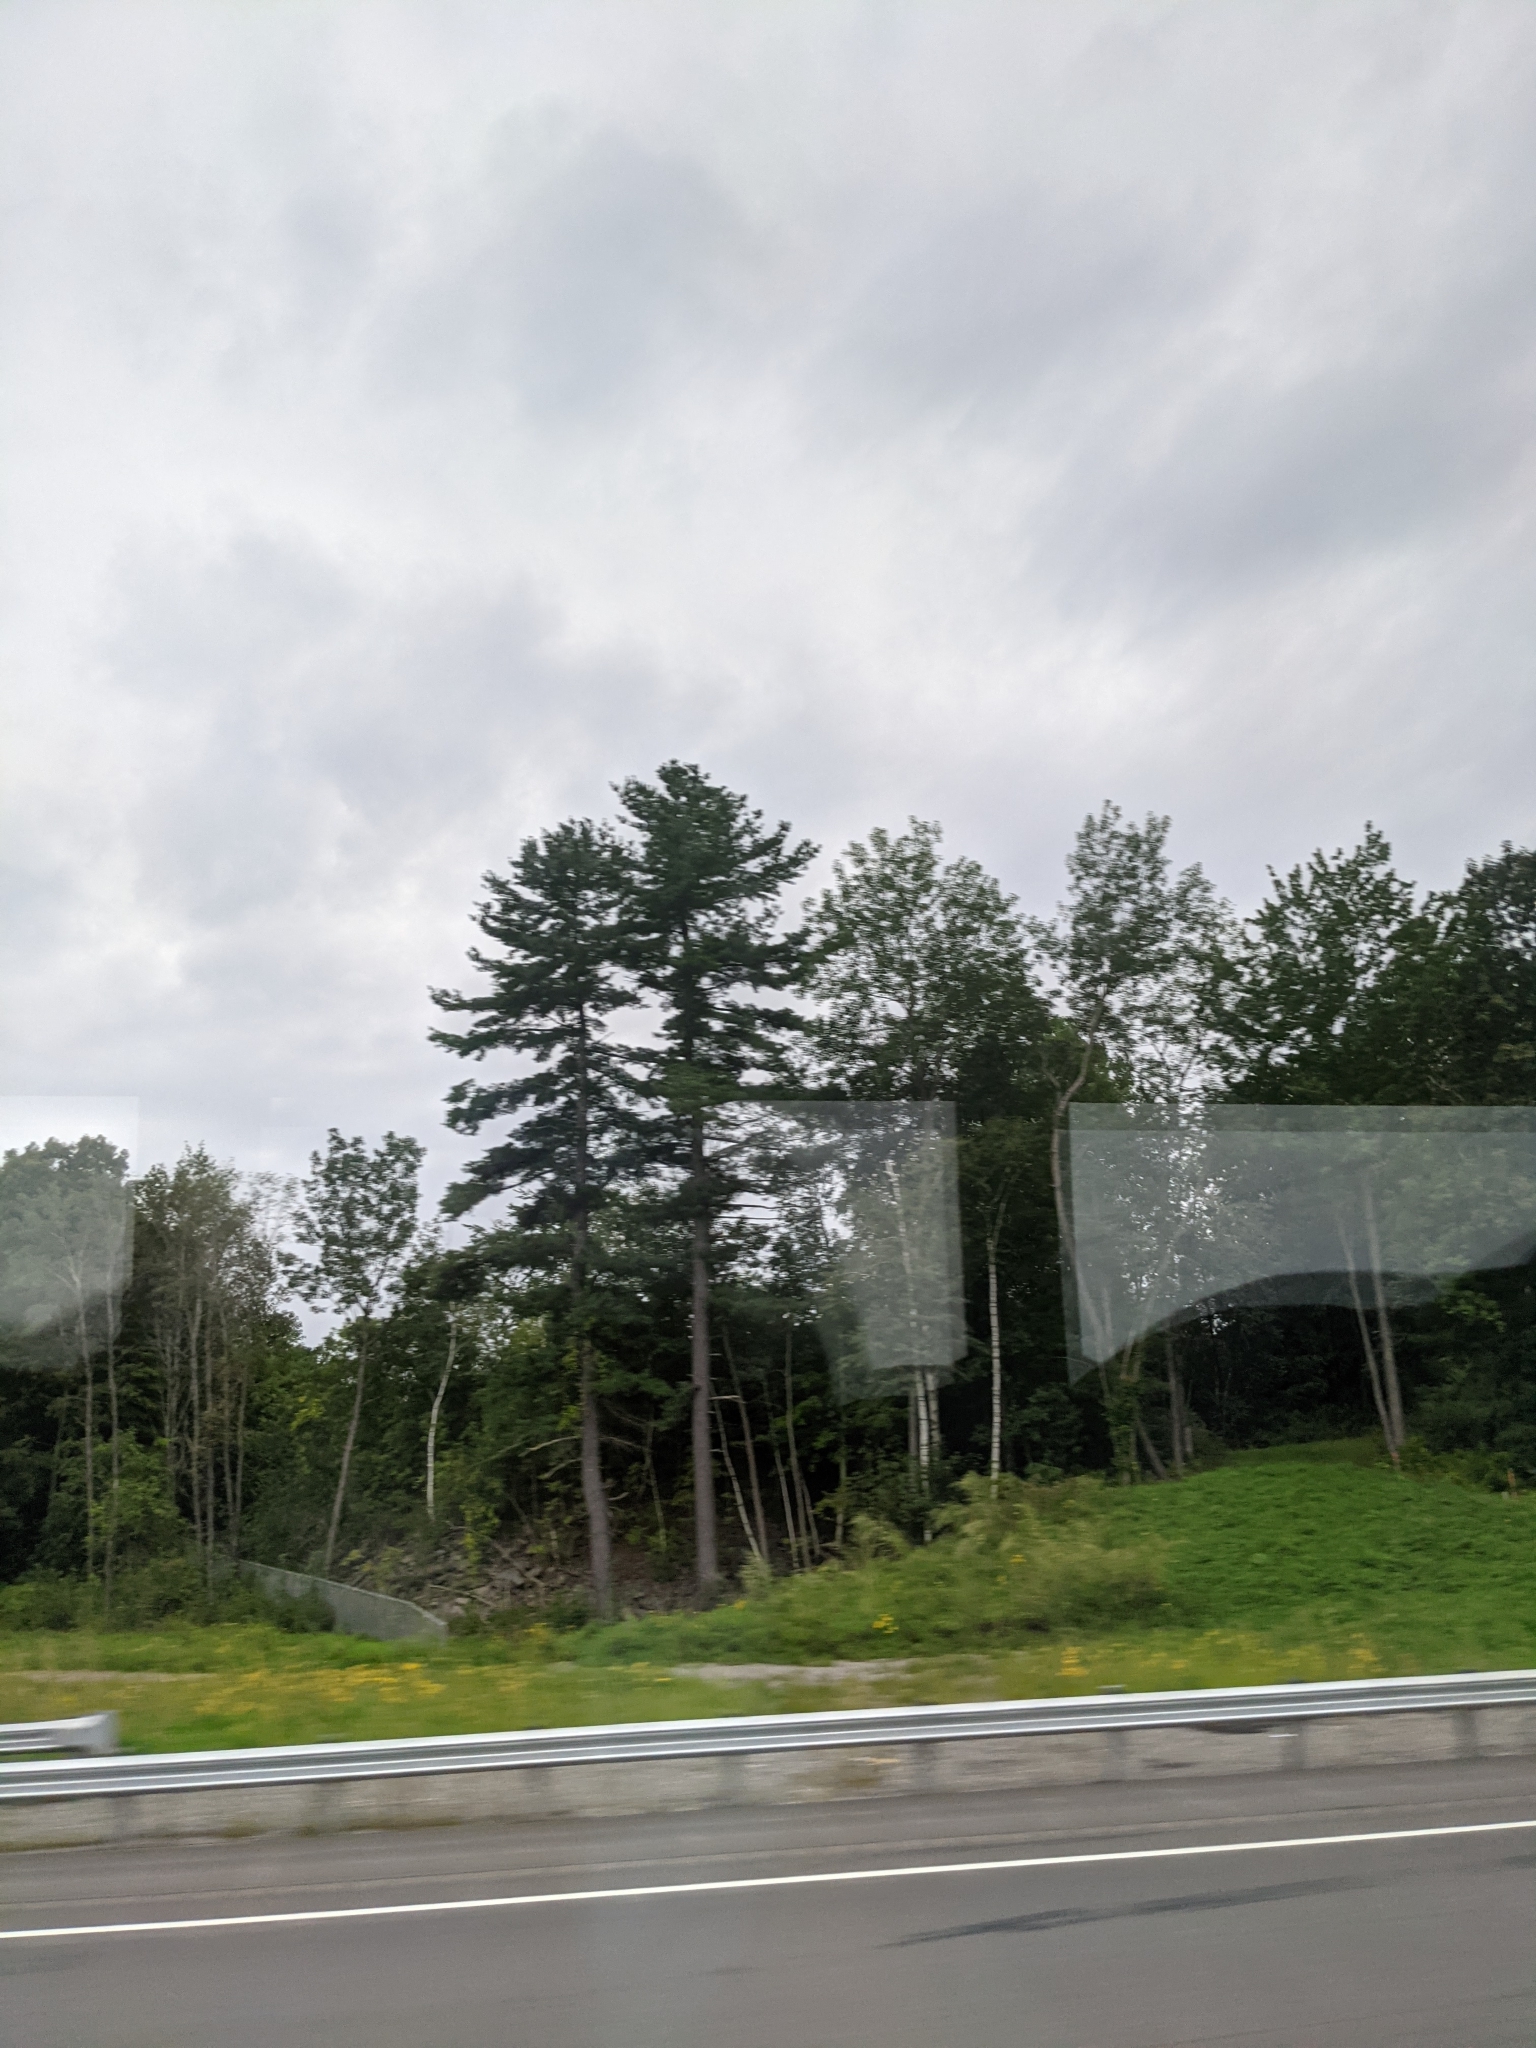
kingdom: Plantae
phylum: Tracheophyta
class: Pinopsida
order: Pinales
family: Pinaceae
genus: Pinus
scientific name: Pinus strobus
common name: Weymouth pine
